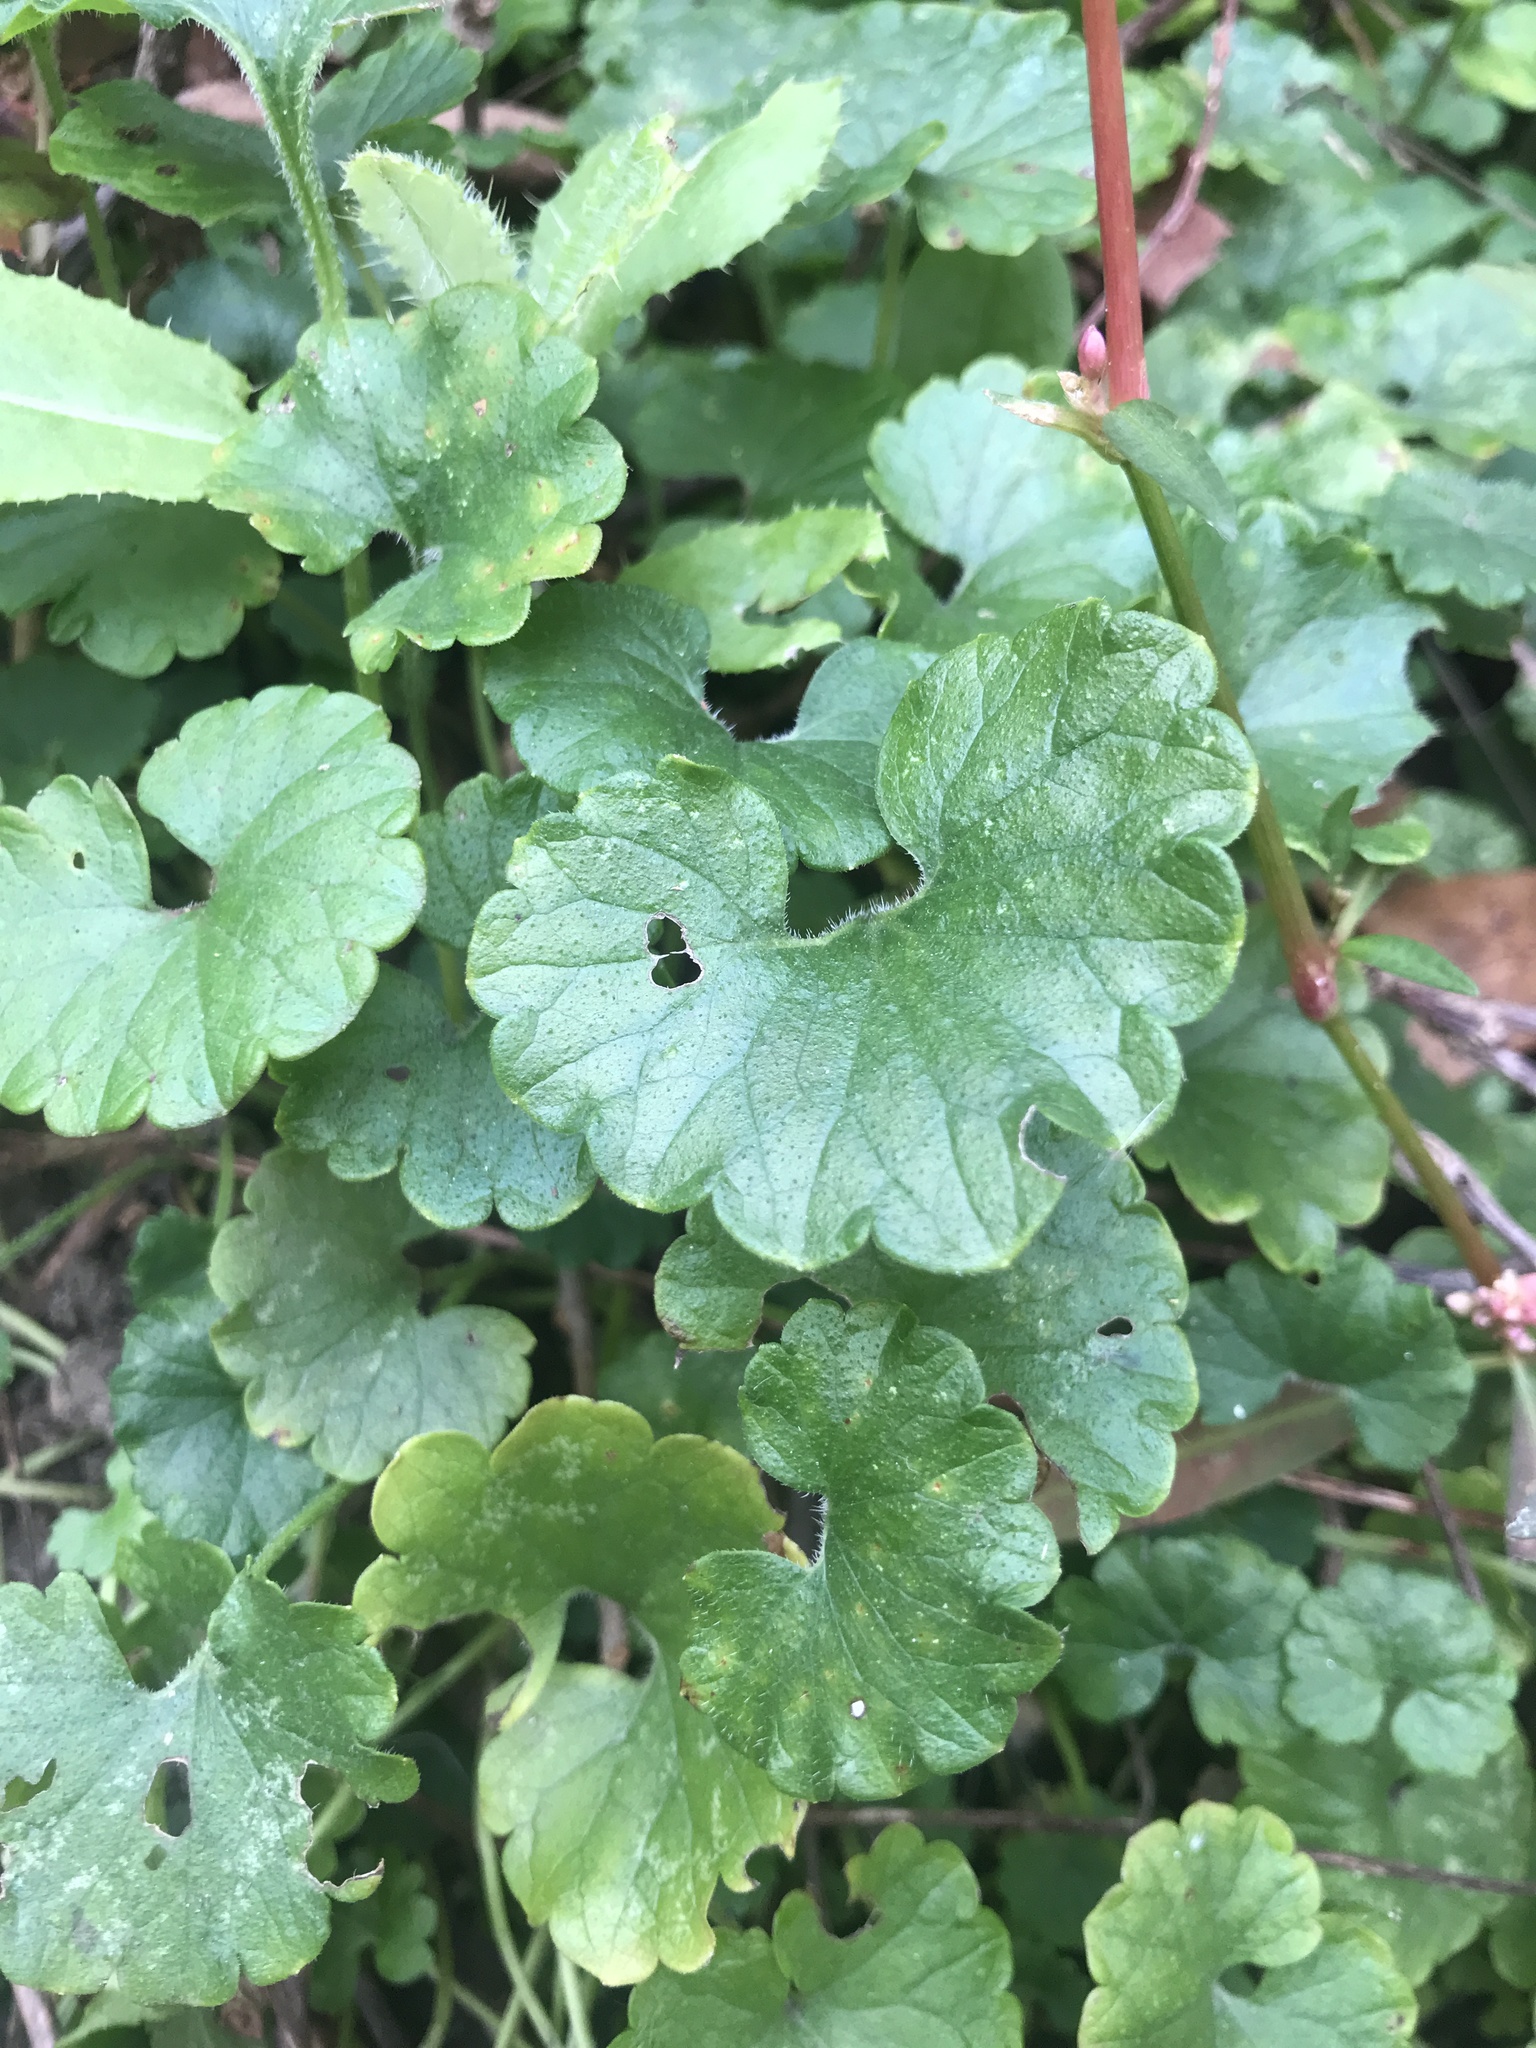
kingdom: Plantae
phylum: Tracheophyta
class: Magnoliopsida
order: Lamiales
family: Lamiaceae
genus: Glechoma
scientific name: Glechoma hederacea
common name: Ground ivy
